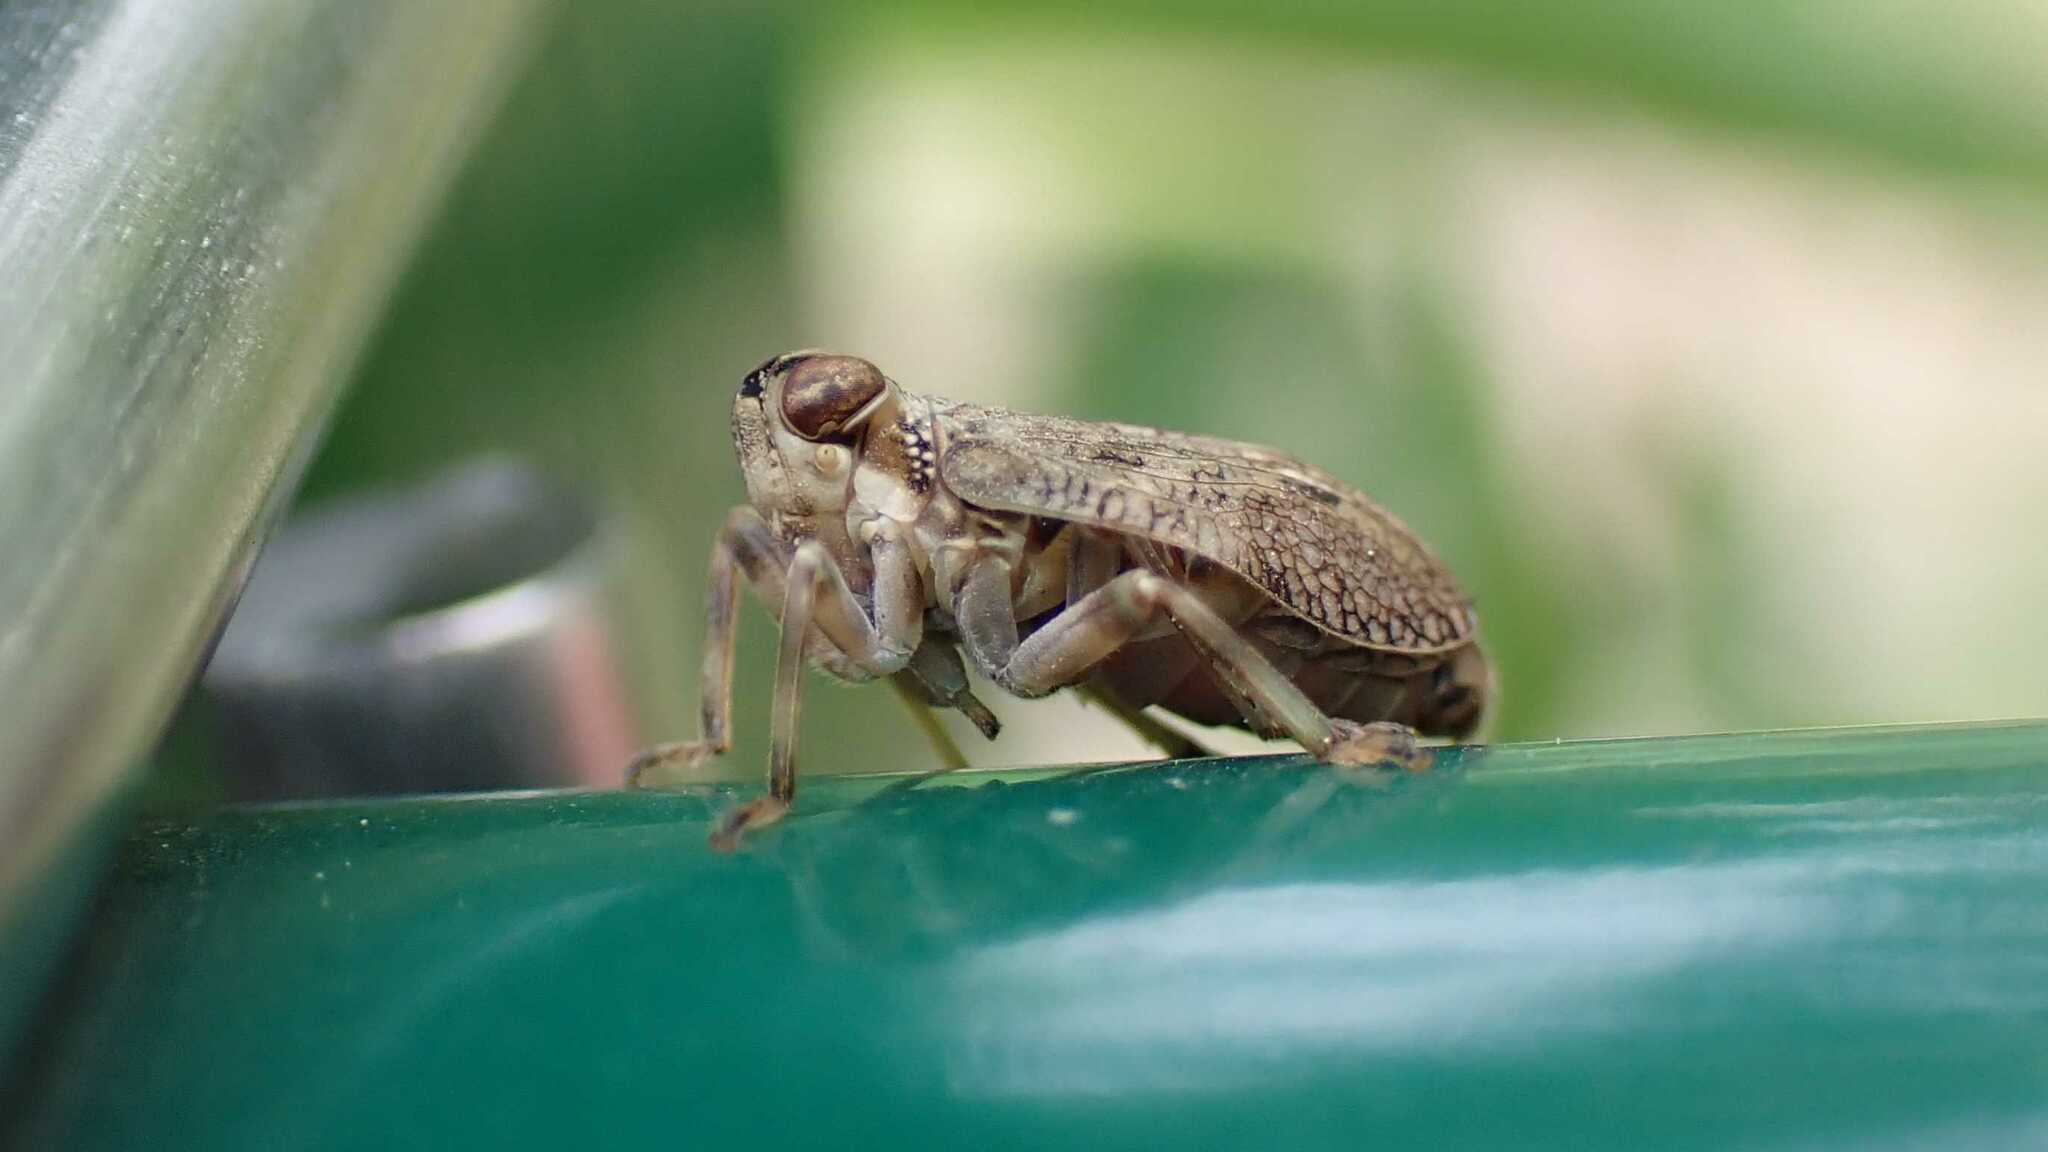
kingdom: Animalia
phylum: Arthropoda
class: Insecta
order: Hemiptera
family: Issidae
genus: Issus
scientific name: Issus coleoptratus
